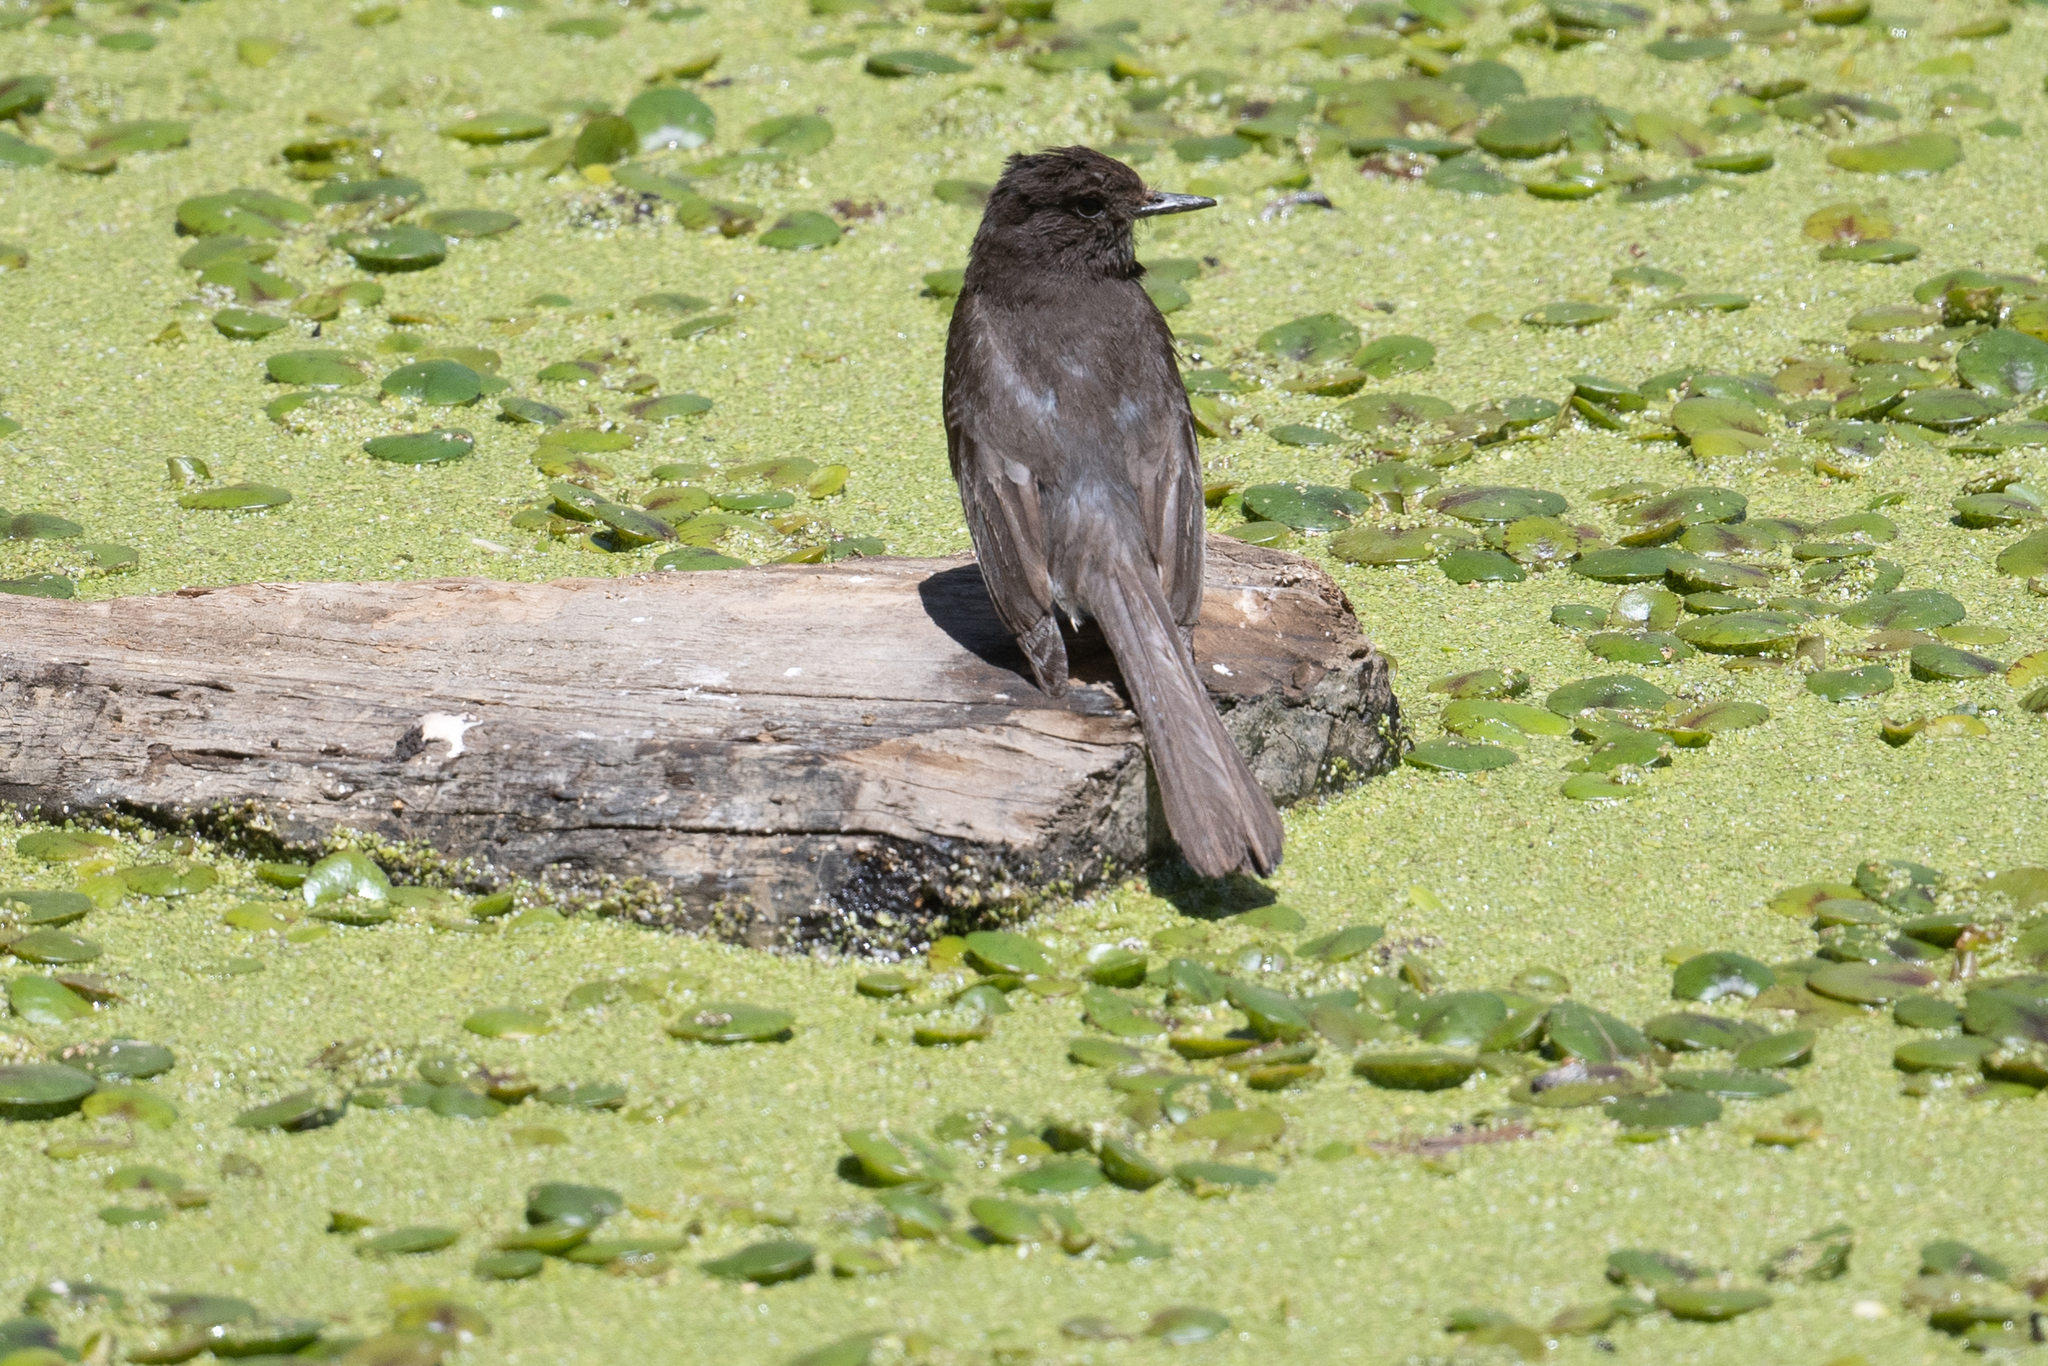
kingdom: Animalia
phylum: Chordata
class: Aves
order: Passeriformes
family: Tyrannidae
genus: Sayornis
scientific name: Sayornis nigricans
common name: Black phoebe
